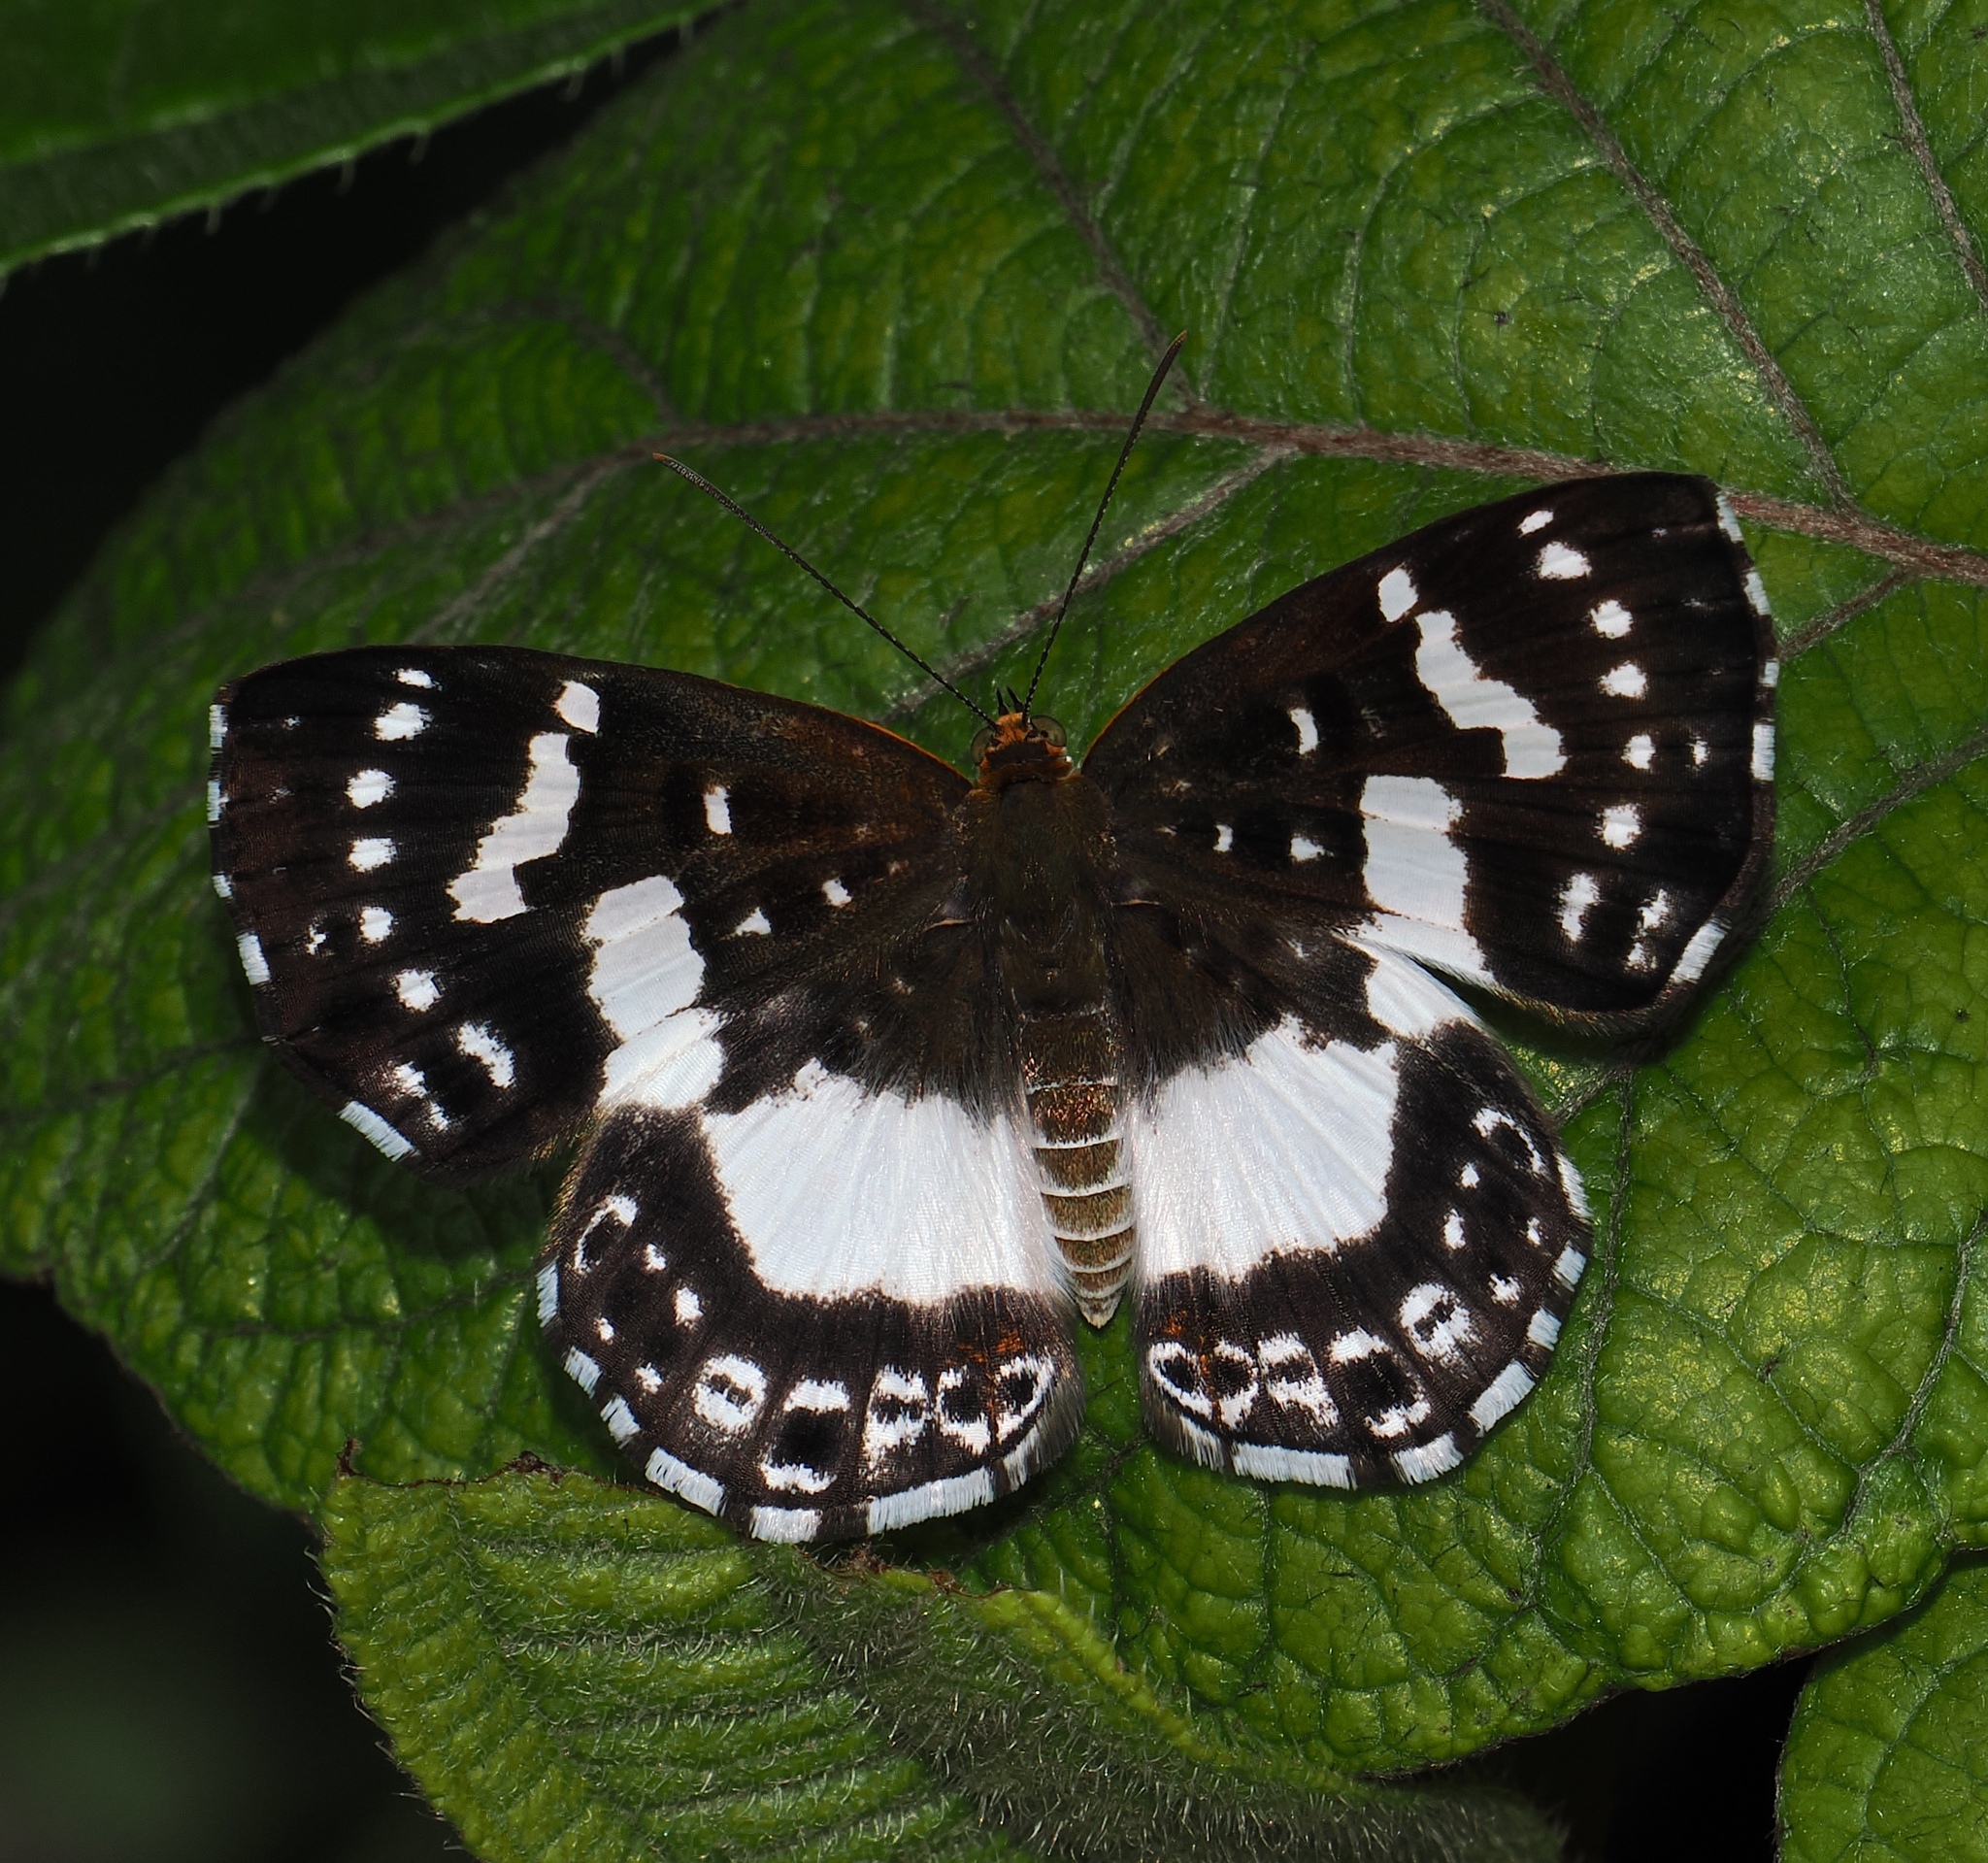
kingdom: Animalia
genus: Lemonias
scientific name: Lemonias zygia
